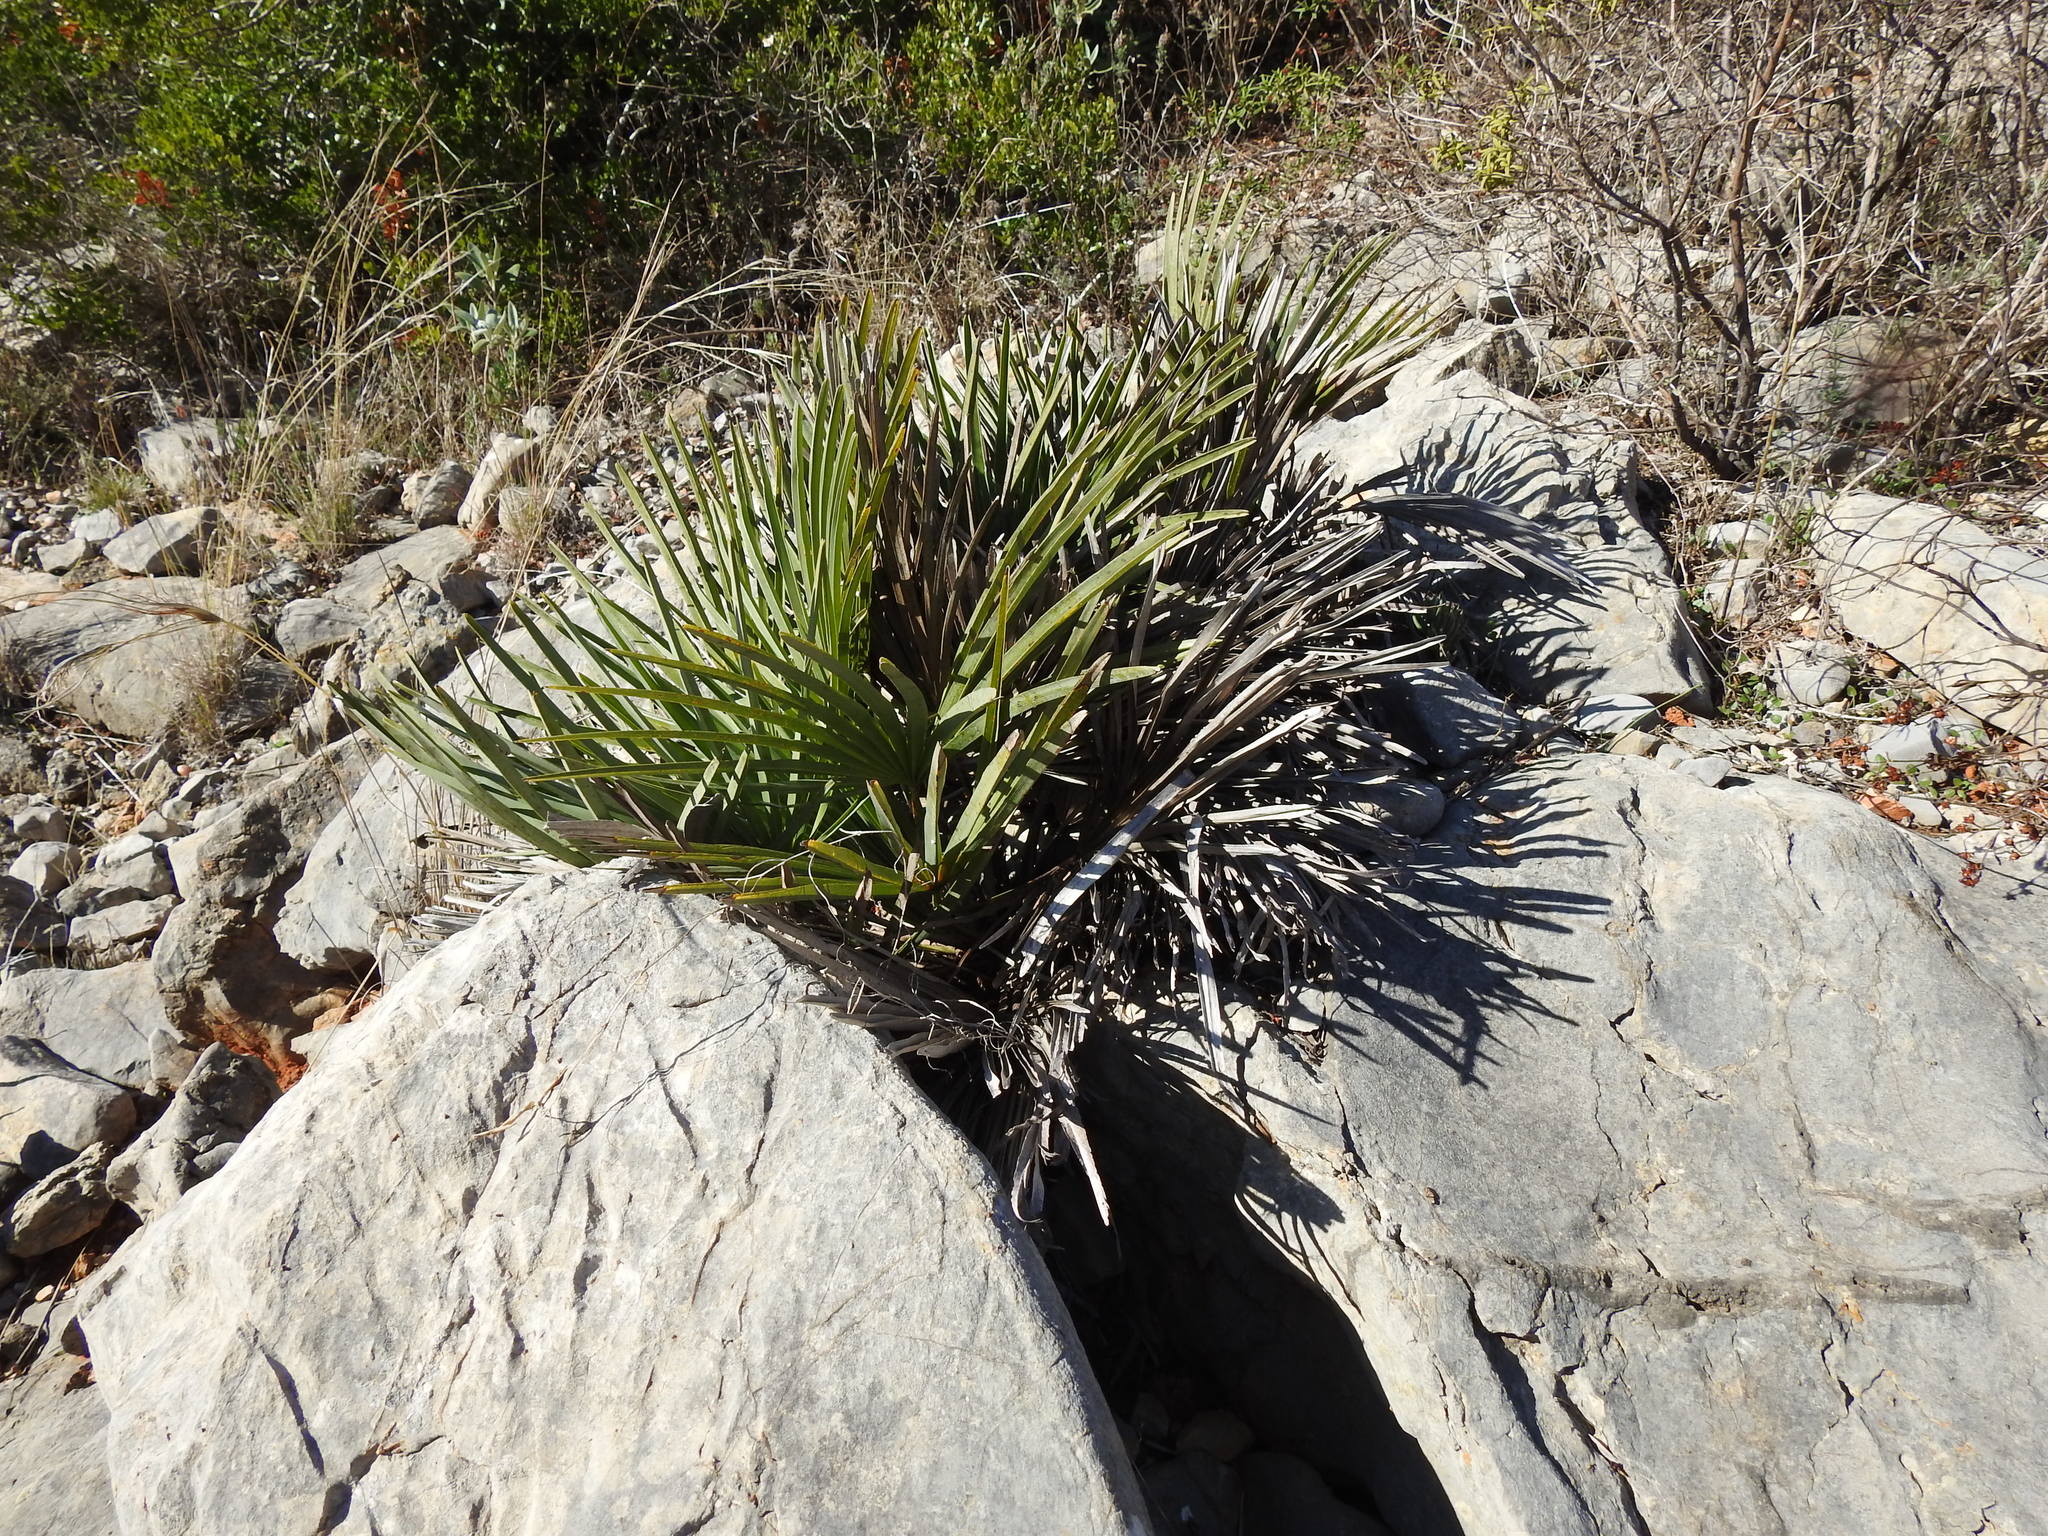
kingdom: Plantae
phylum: Tracheophyta
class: Liliopsida
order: Arecales
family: Arecaceae
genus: Chamaerops
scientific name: Chamaerops humilis
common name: Dwarf fan palm
